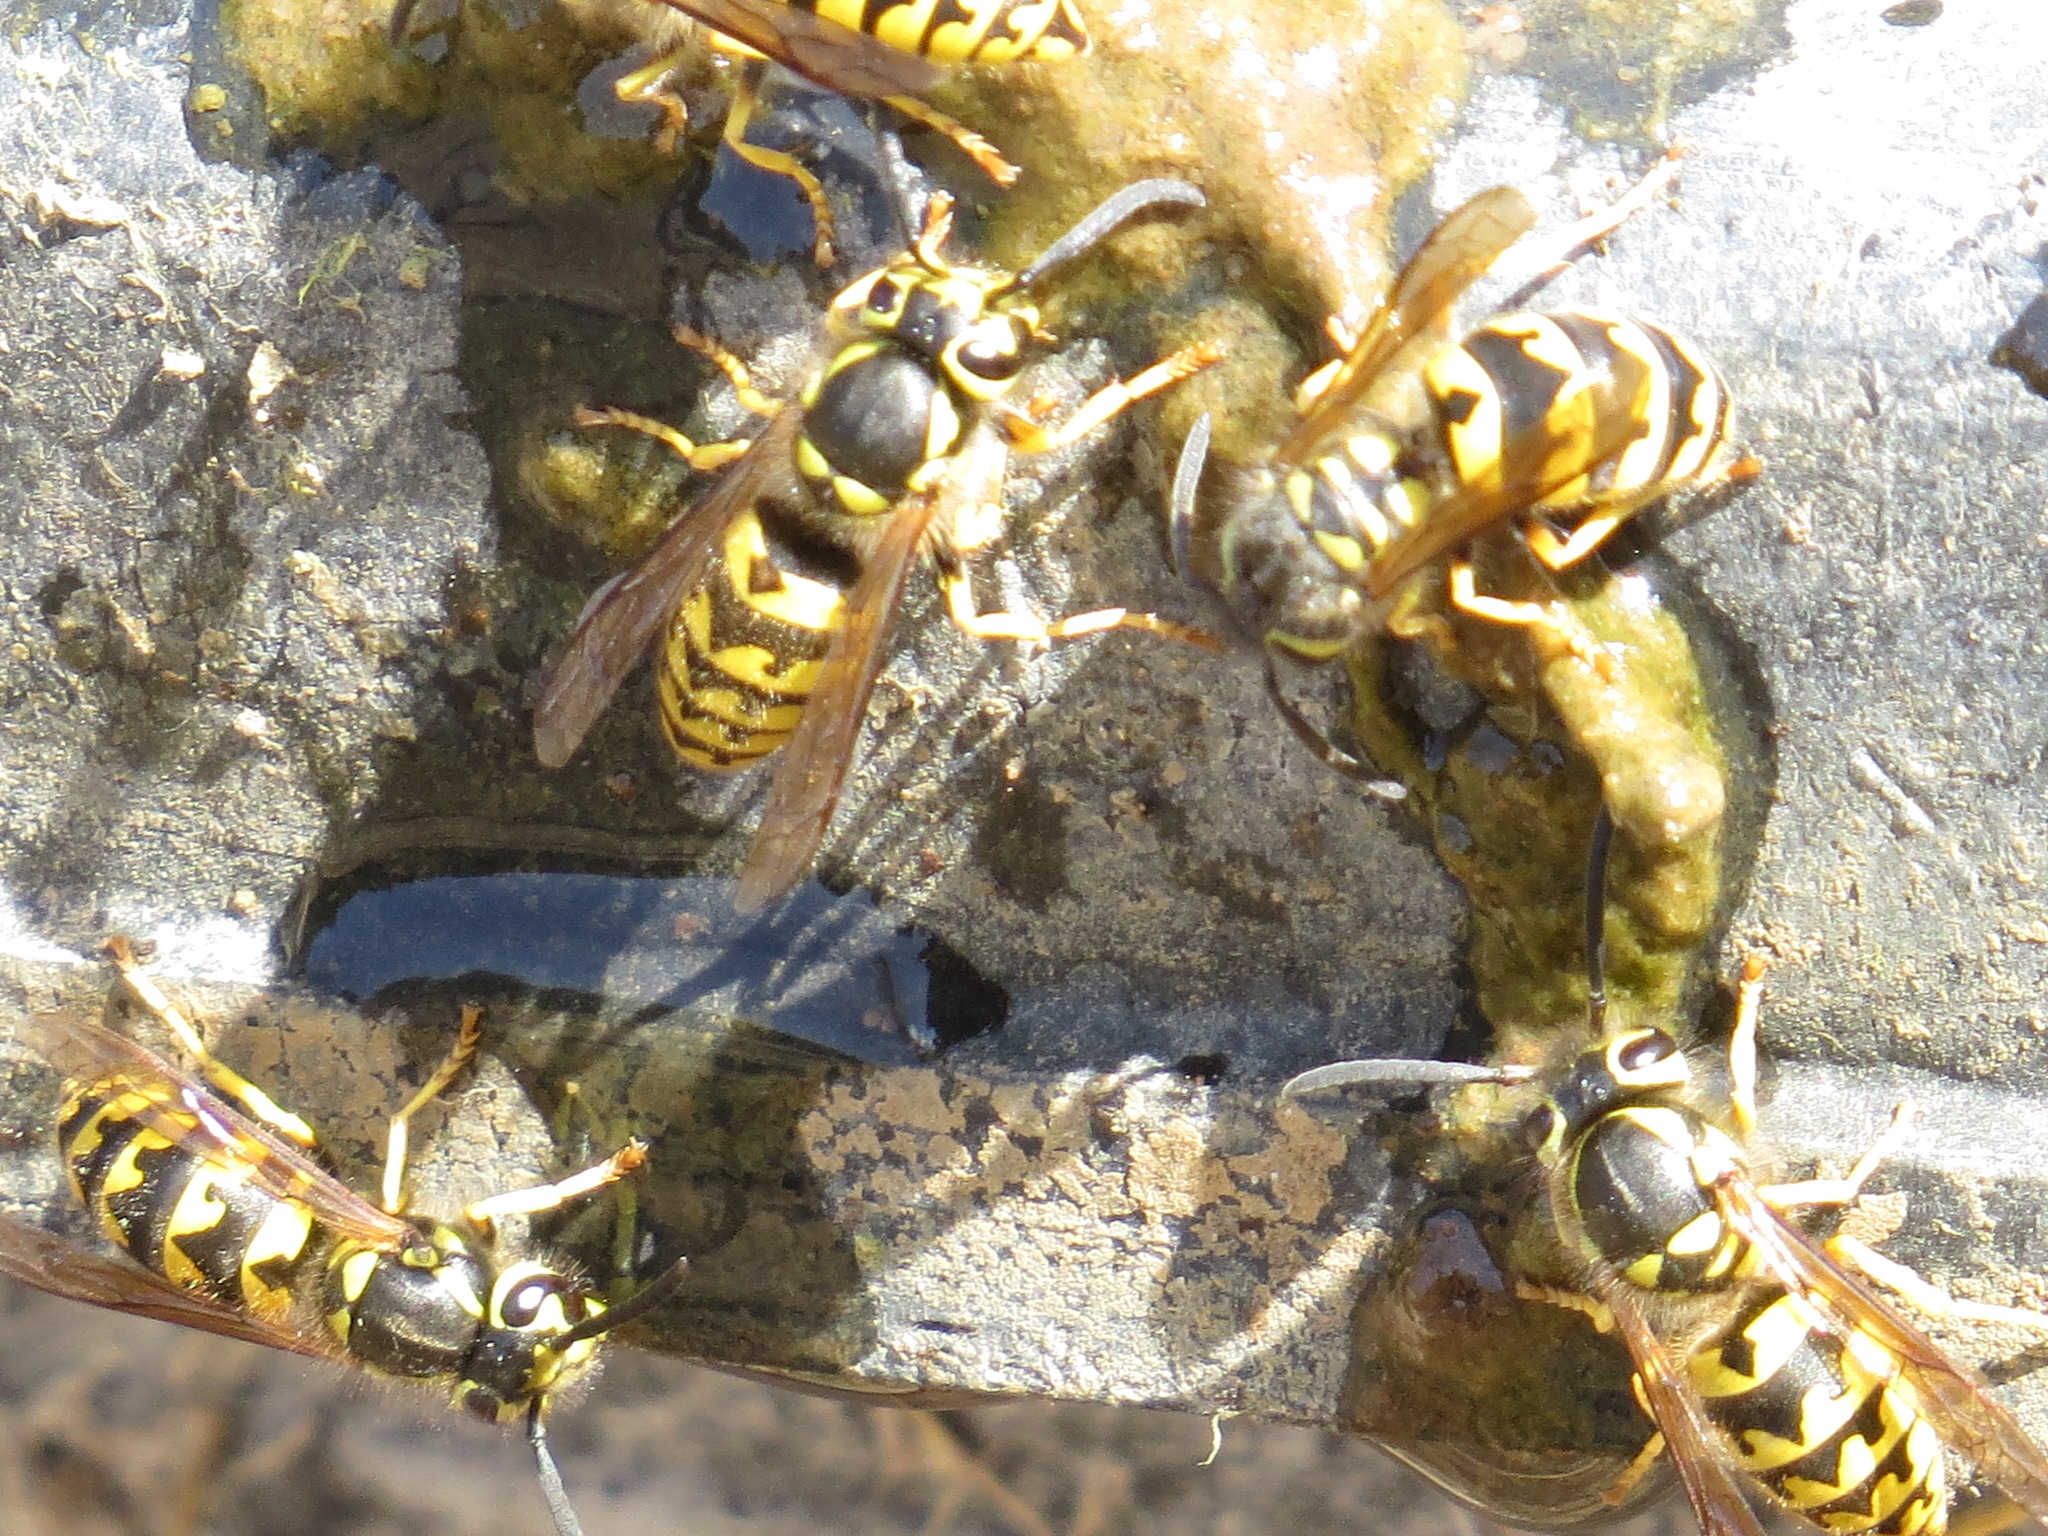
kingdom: Animalia
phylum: Arthropoda
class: Insecta
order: Hymenoptera
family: Vespidae
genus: Vespula
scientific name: Vespula pensylvanica
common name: Western yellowjacket
